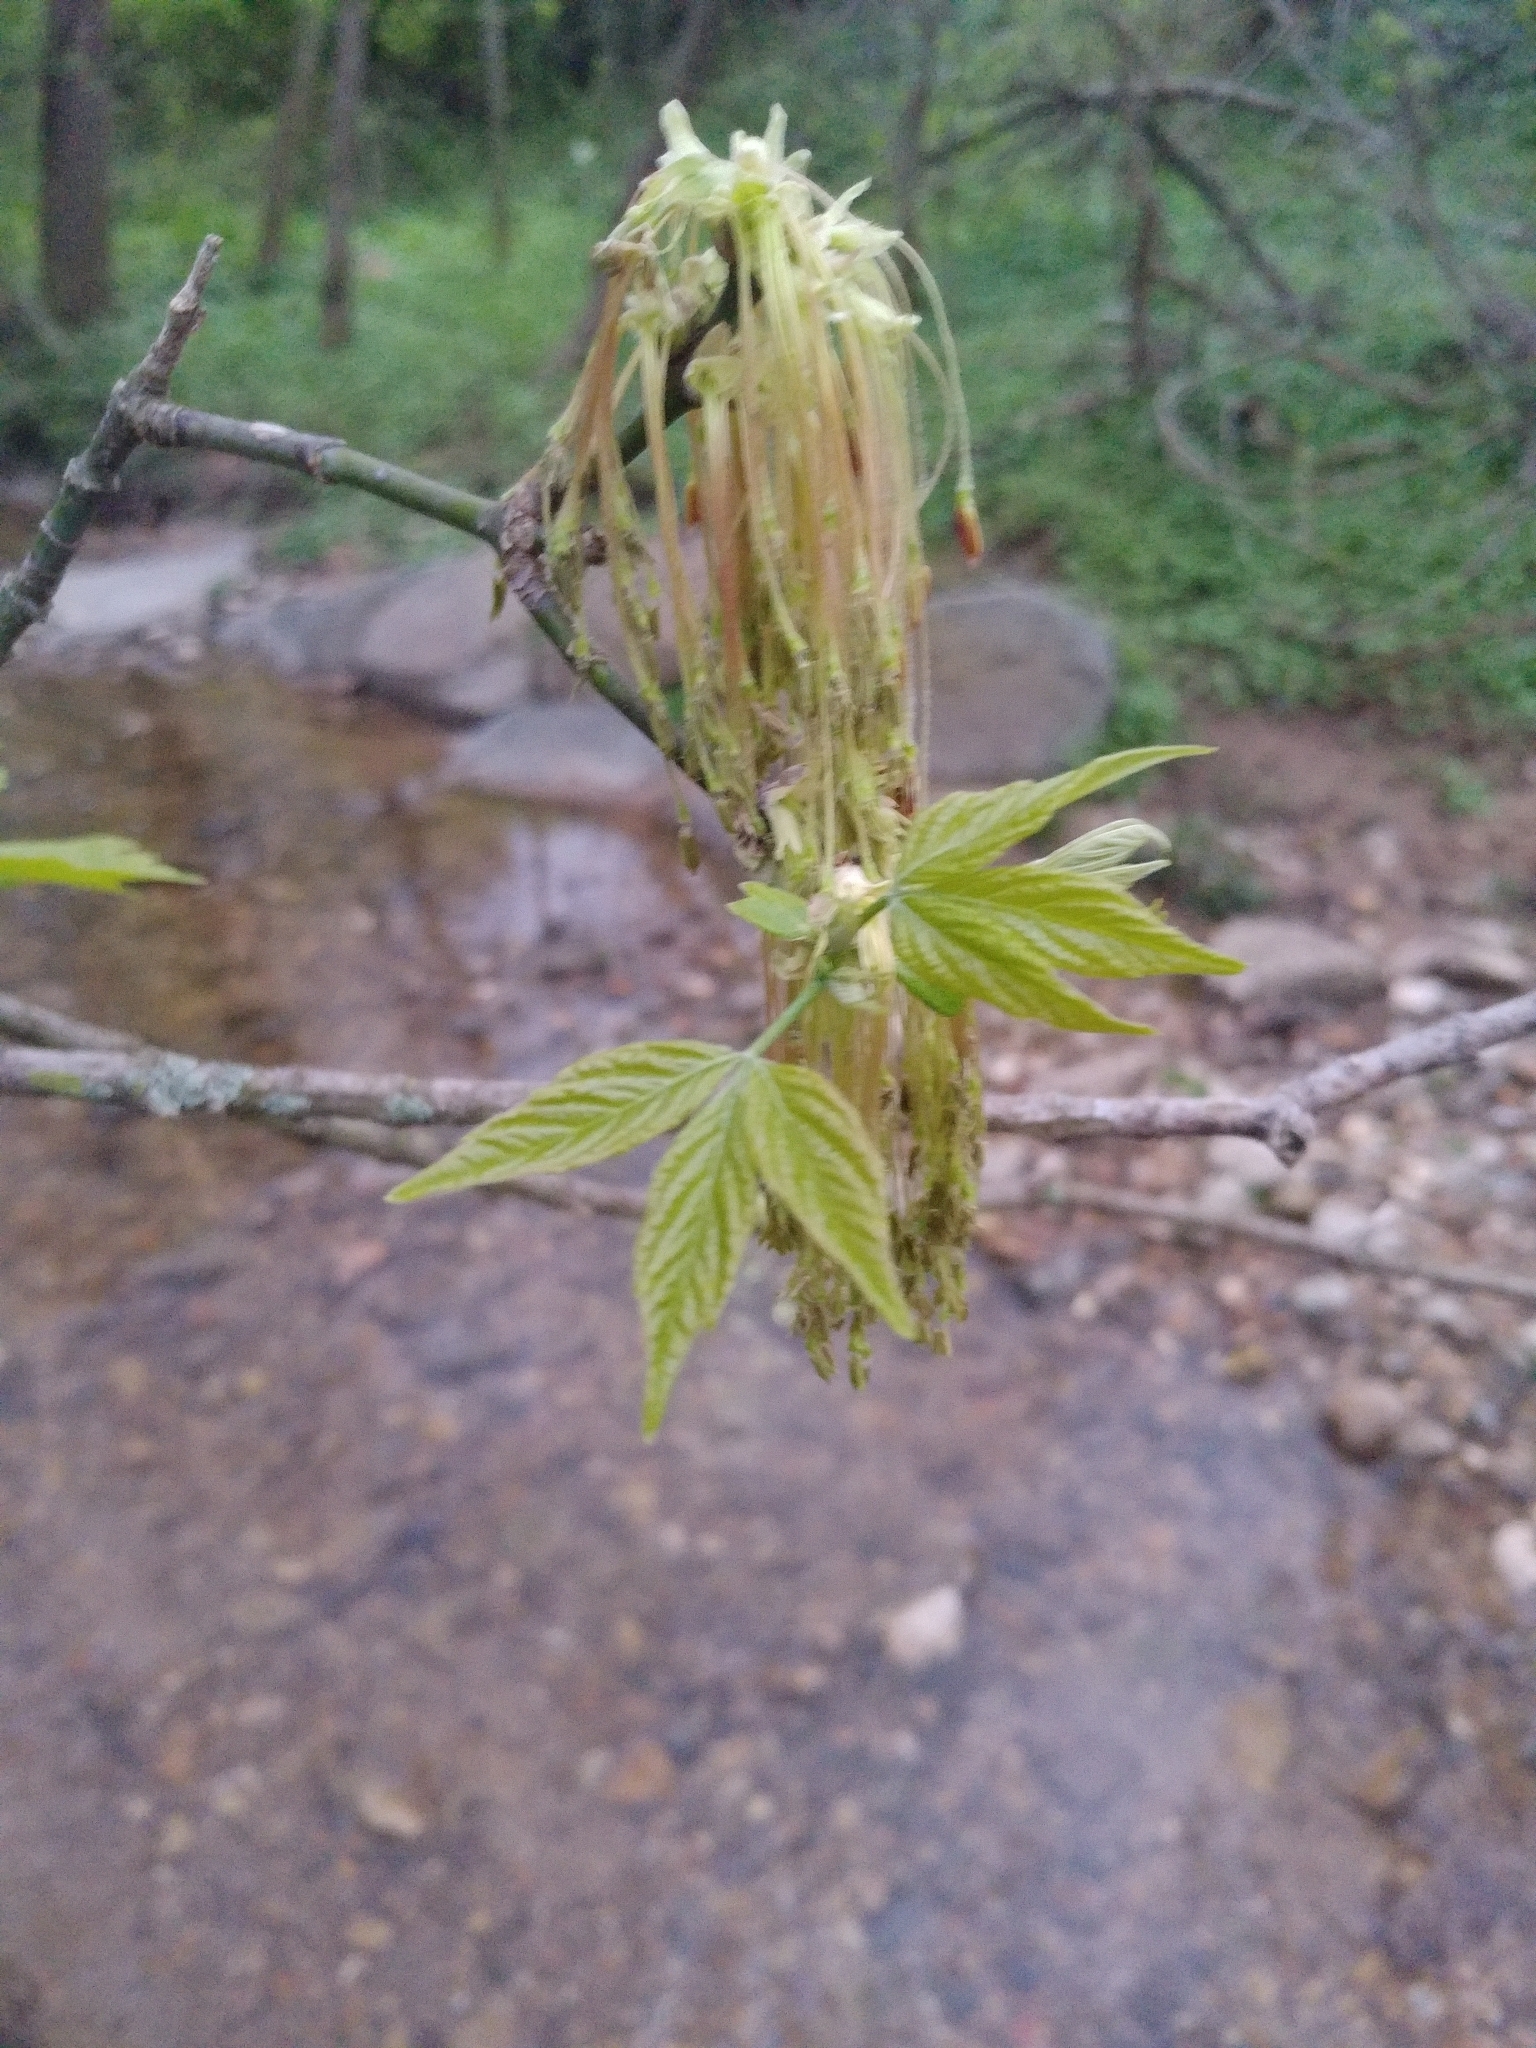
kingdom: Plantae
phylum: Tracheophyta
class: Magnoliopsida
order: Sapindales
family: Sapindaceae
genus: Acer
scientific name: Acer negundo
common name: Ashleaf maple
